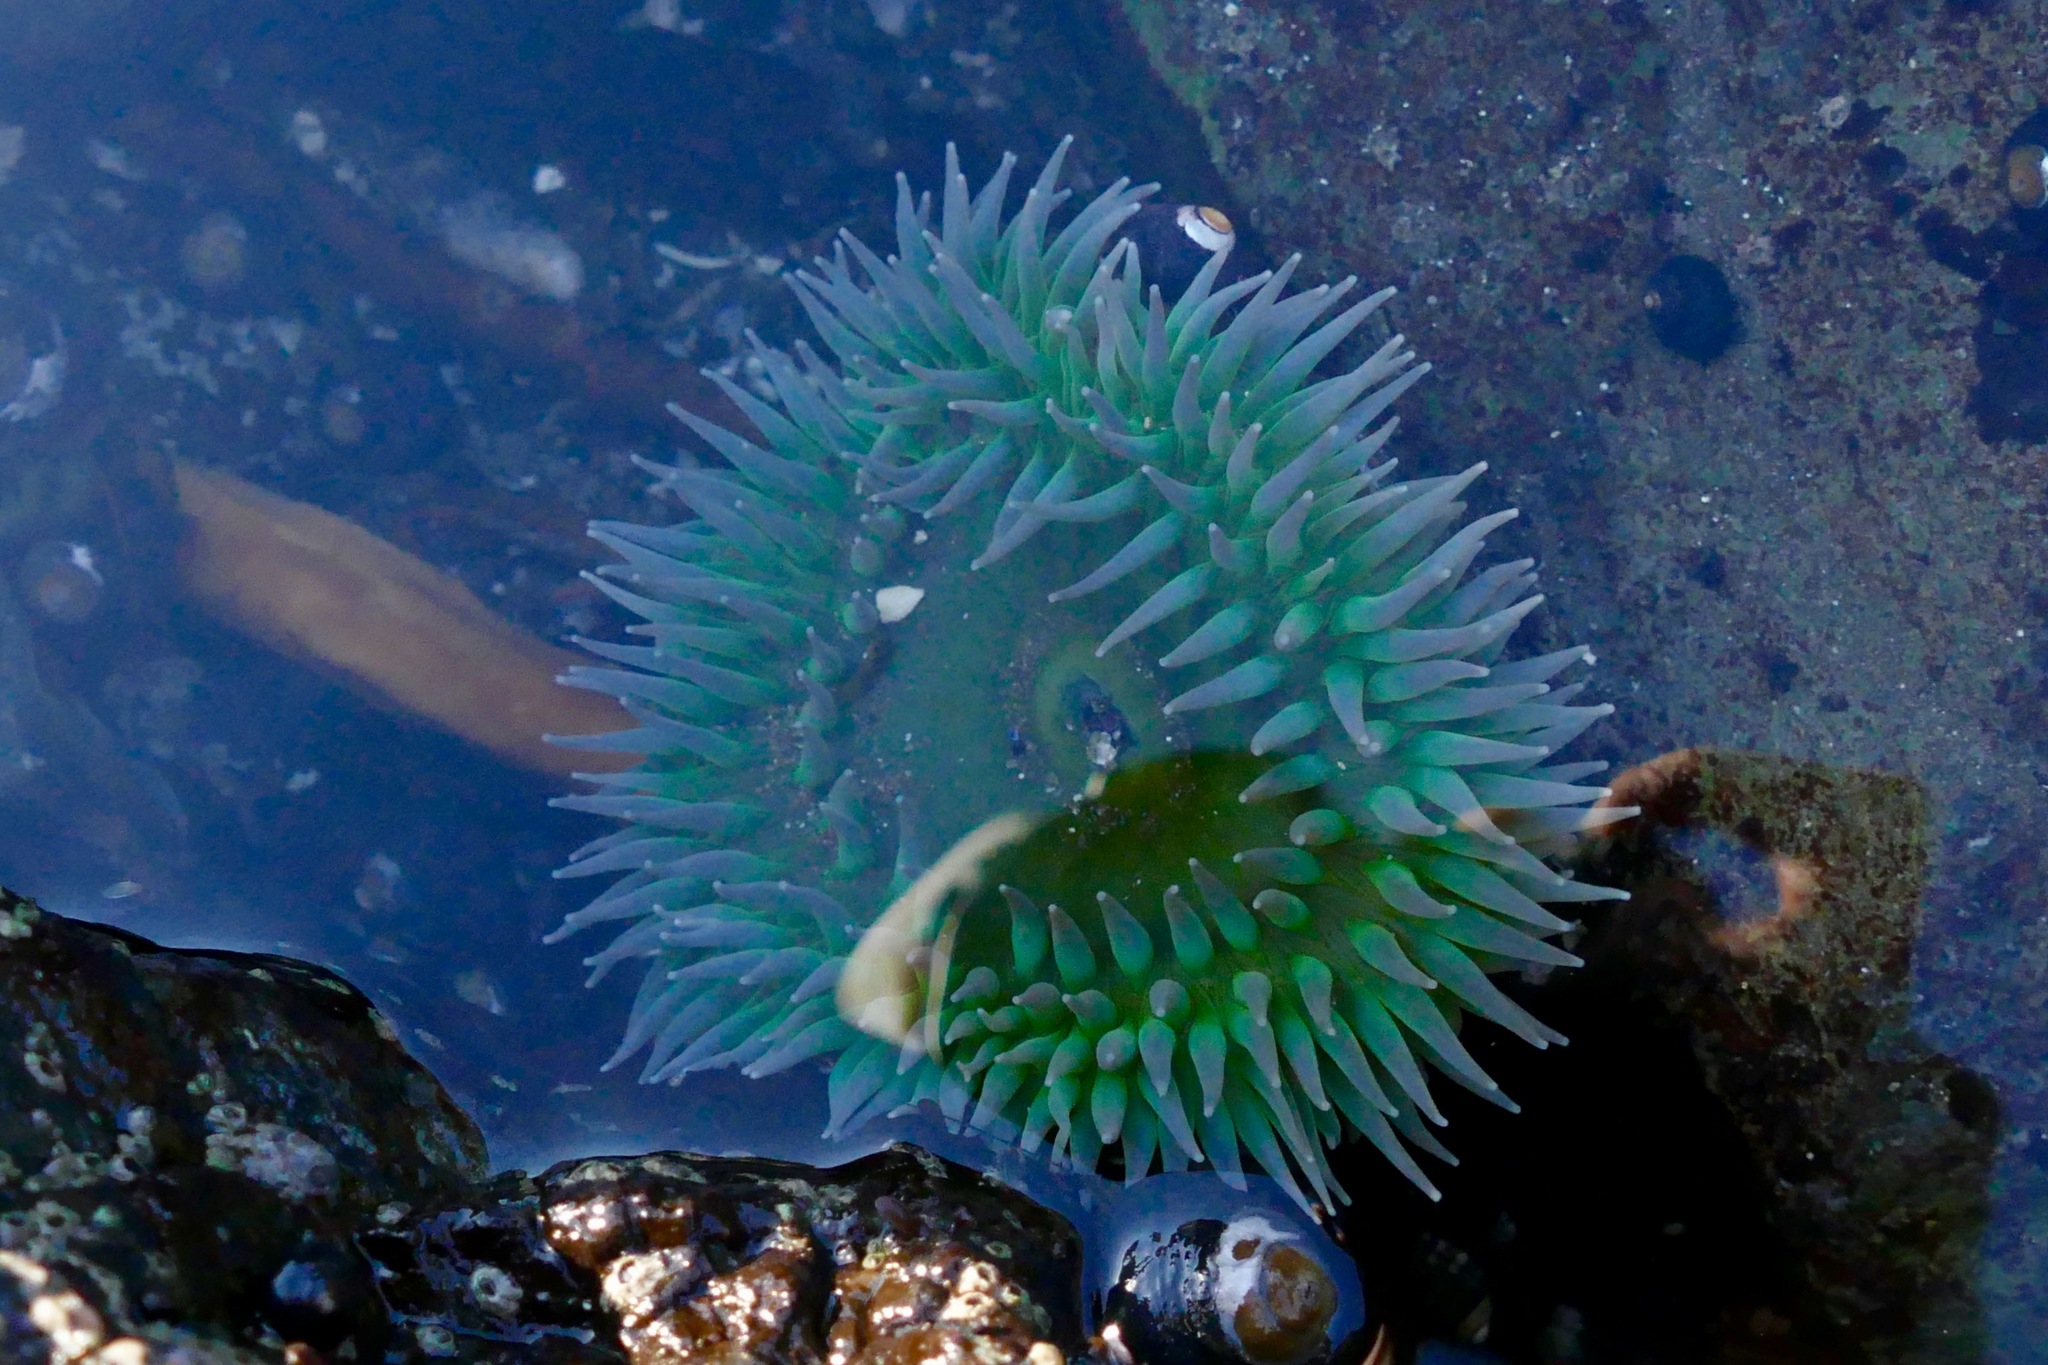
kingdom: Animalia
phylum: Cnidaria
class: Anthozoa
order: Actiniaria
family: Actiniidae
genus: Anthopleura
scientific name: Anthopleura xanthogrammica
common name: Giant green anemone
